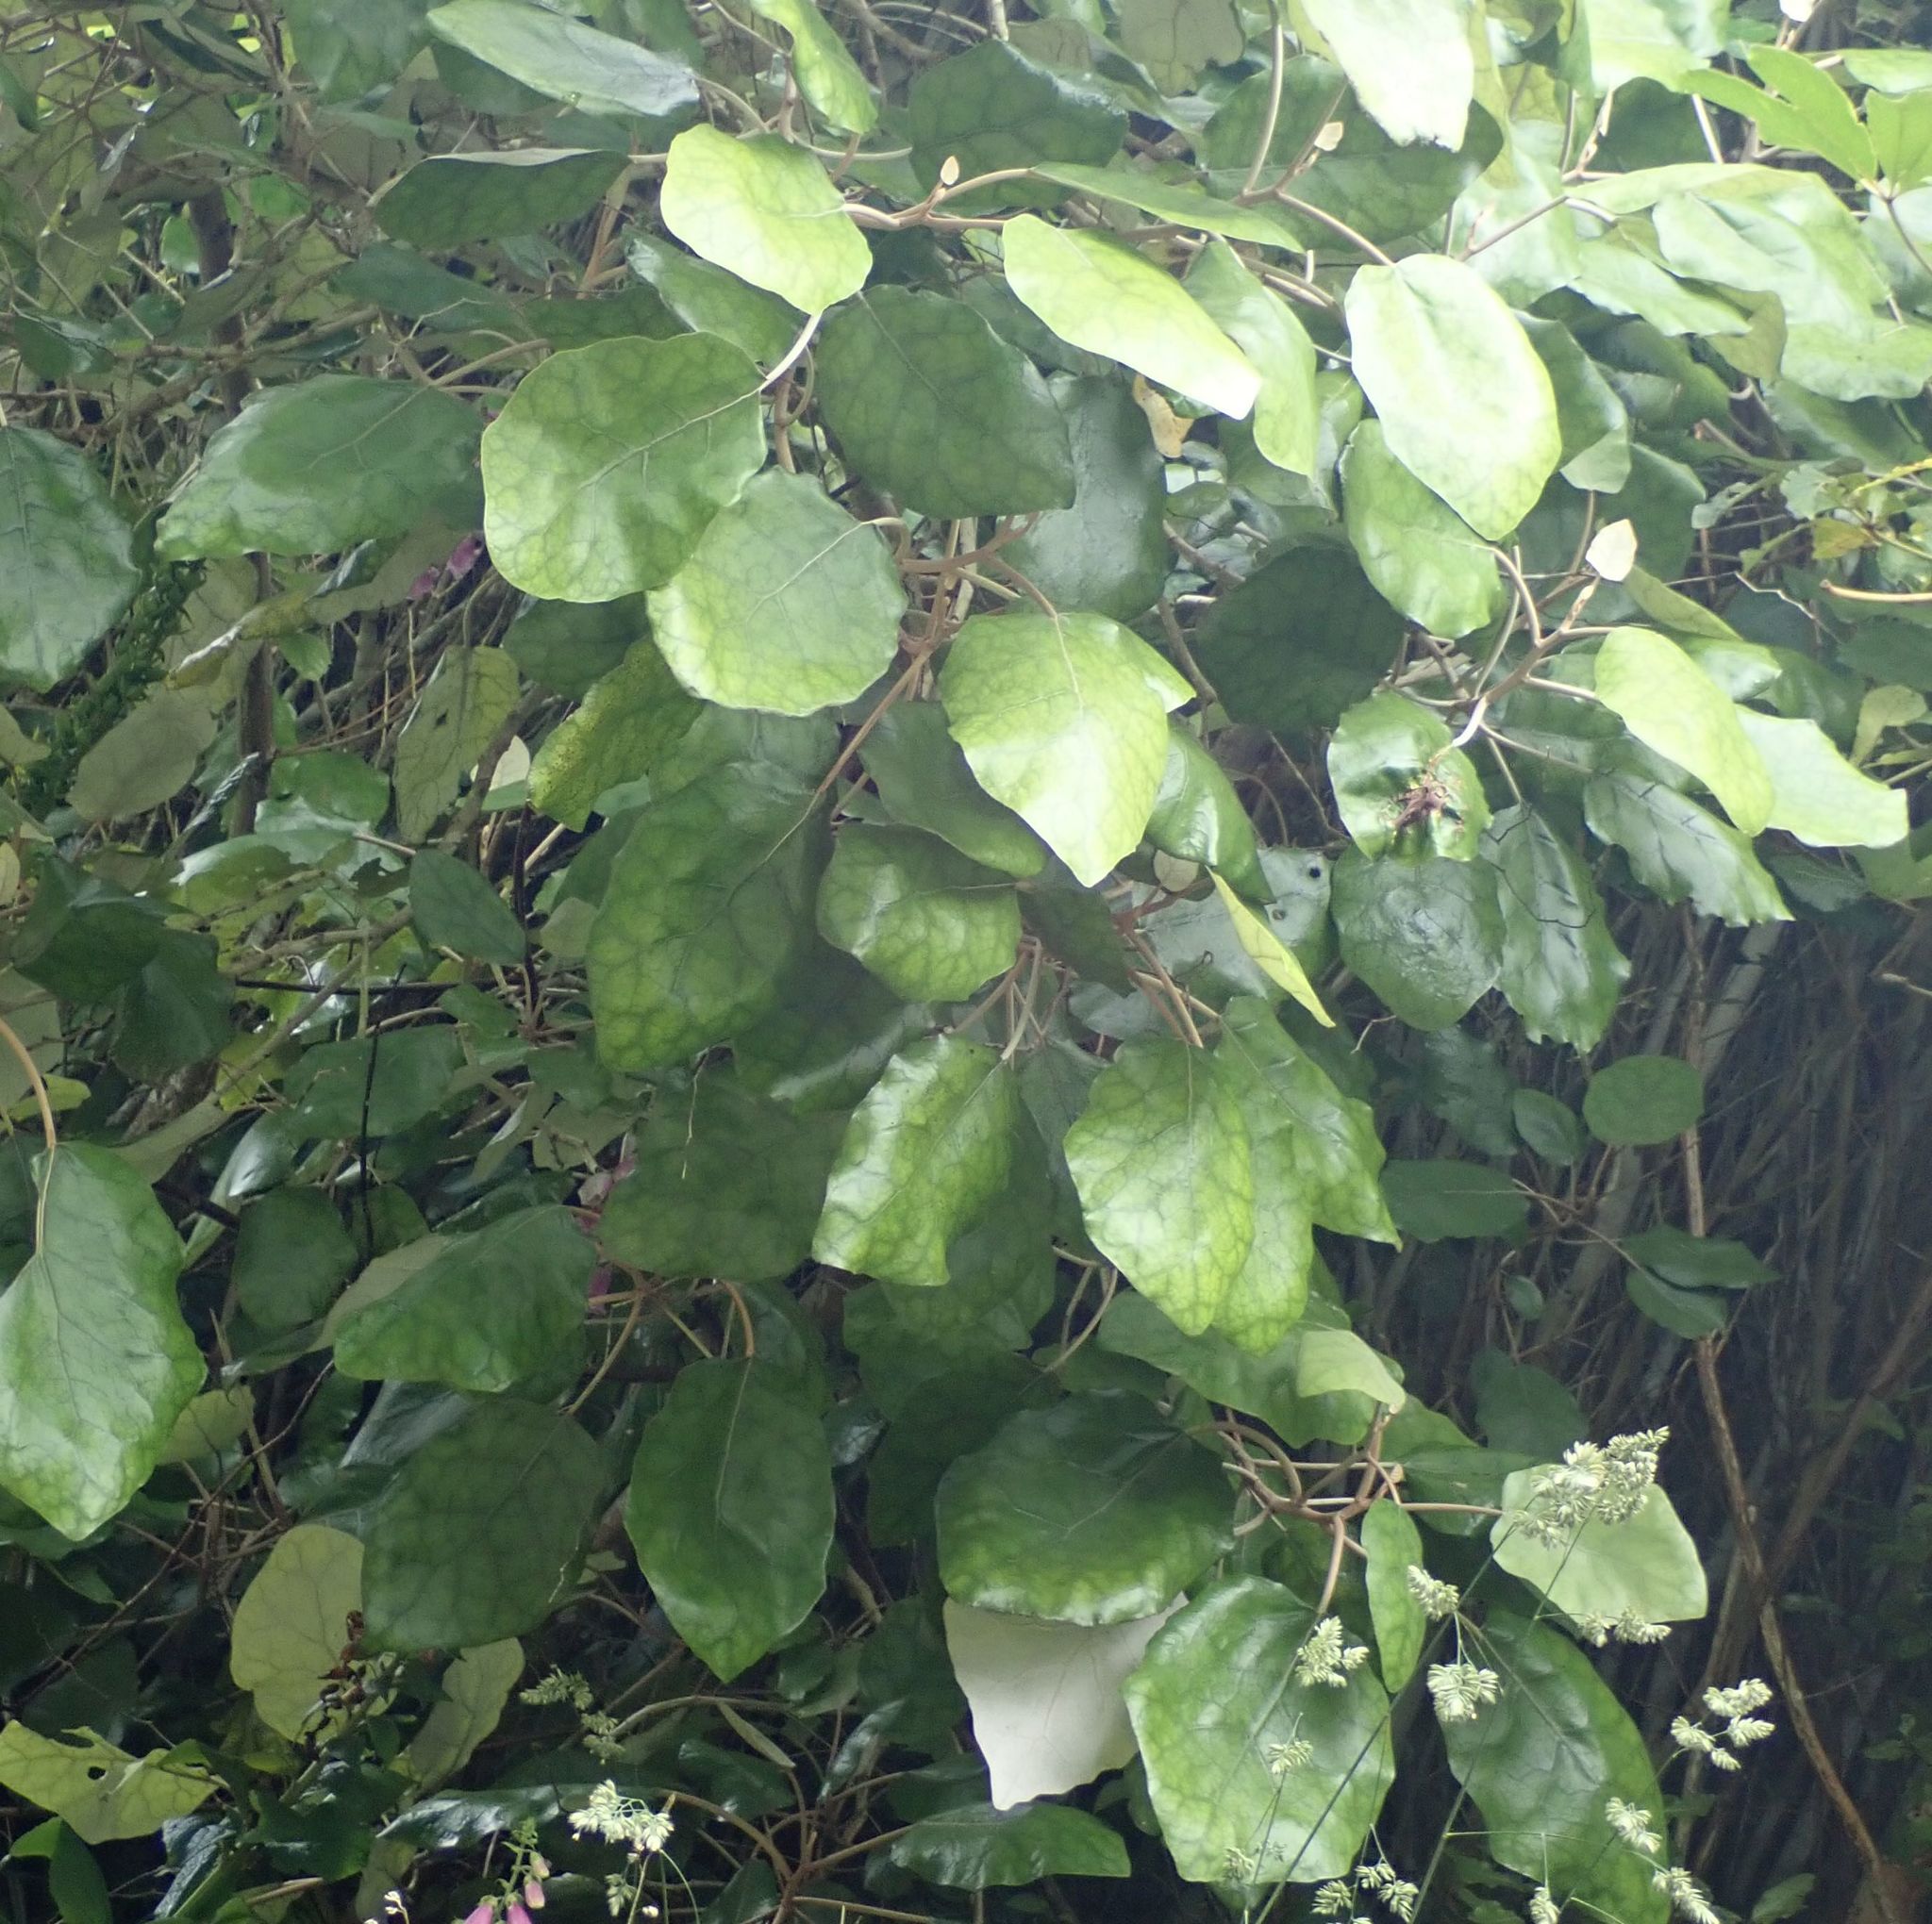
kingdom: Plantae
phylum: Tracheophyta
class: Magnoliopsida
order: Asterales
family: Asteraceae
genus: Brachyglottis
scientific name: Brachyglottis repanda
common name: Hedge ragwort
